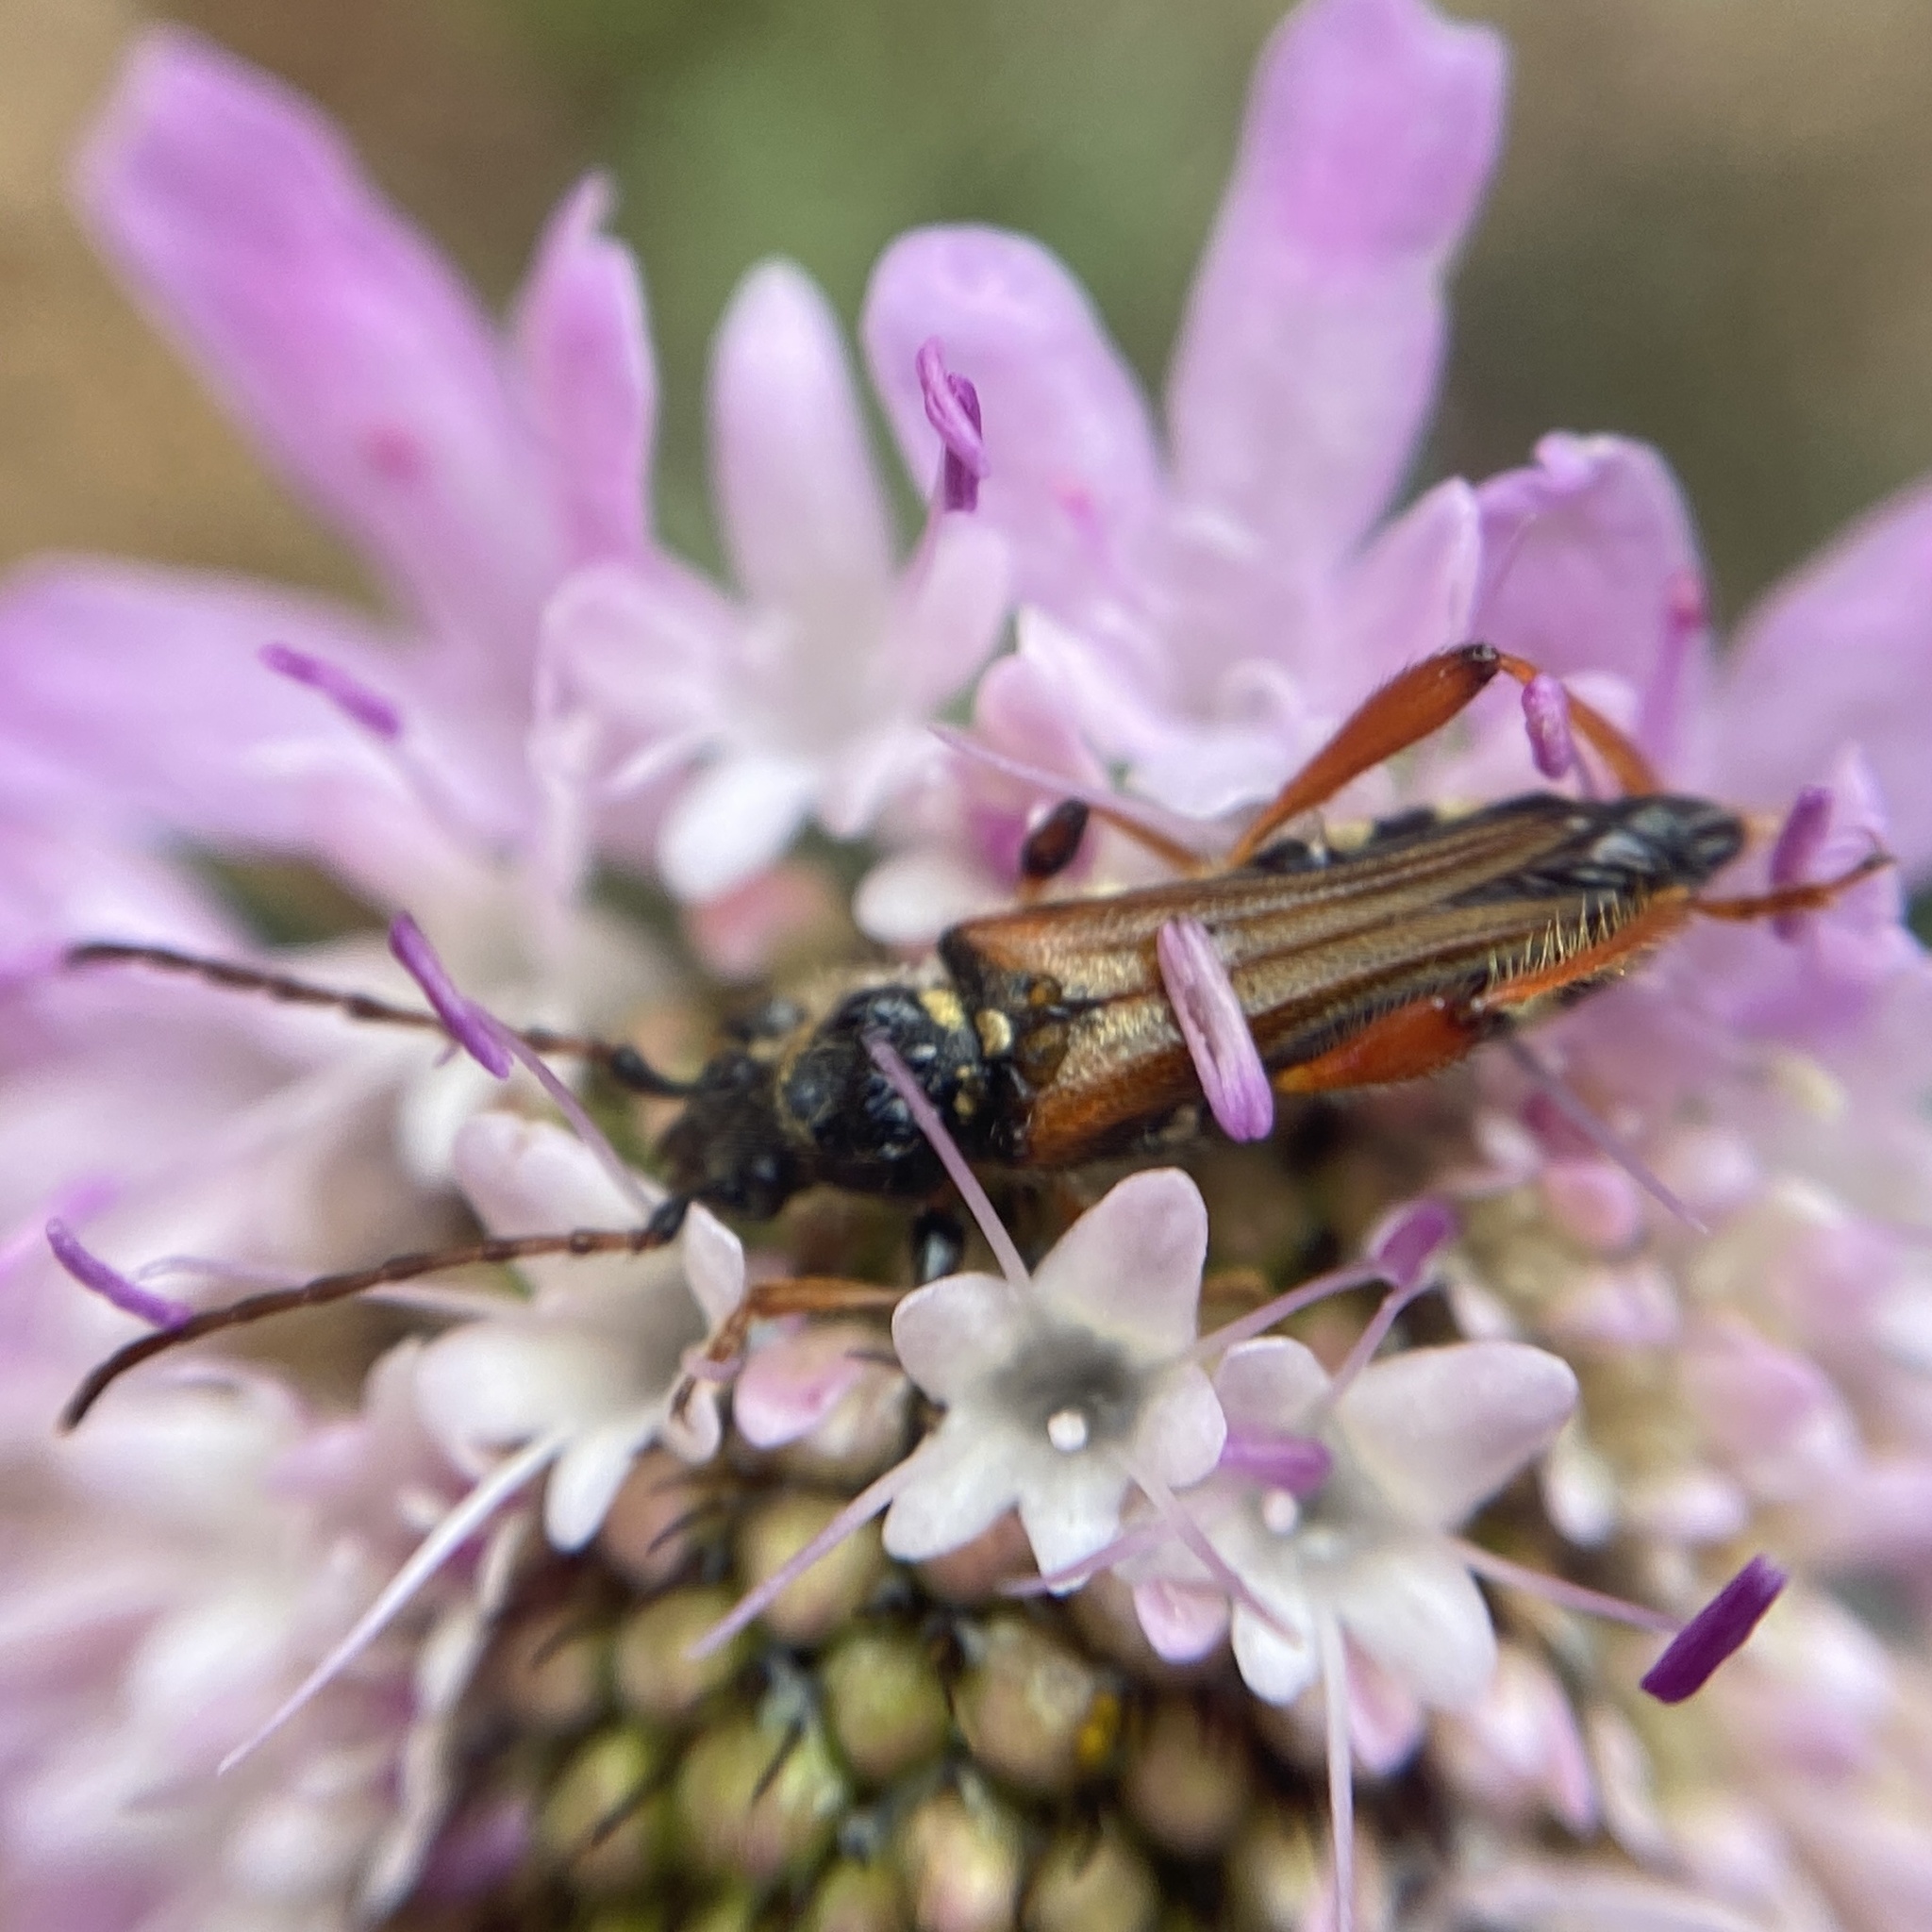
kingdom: Animalia
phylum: Arthropoda
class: Insecta
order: Coleoptera
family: Cerambycidae
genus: Stenopterus
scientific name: Stenopterus rufus
